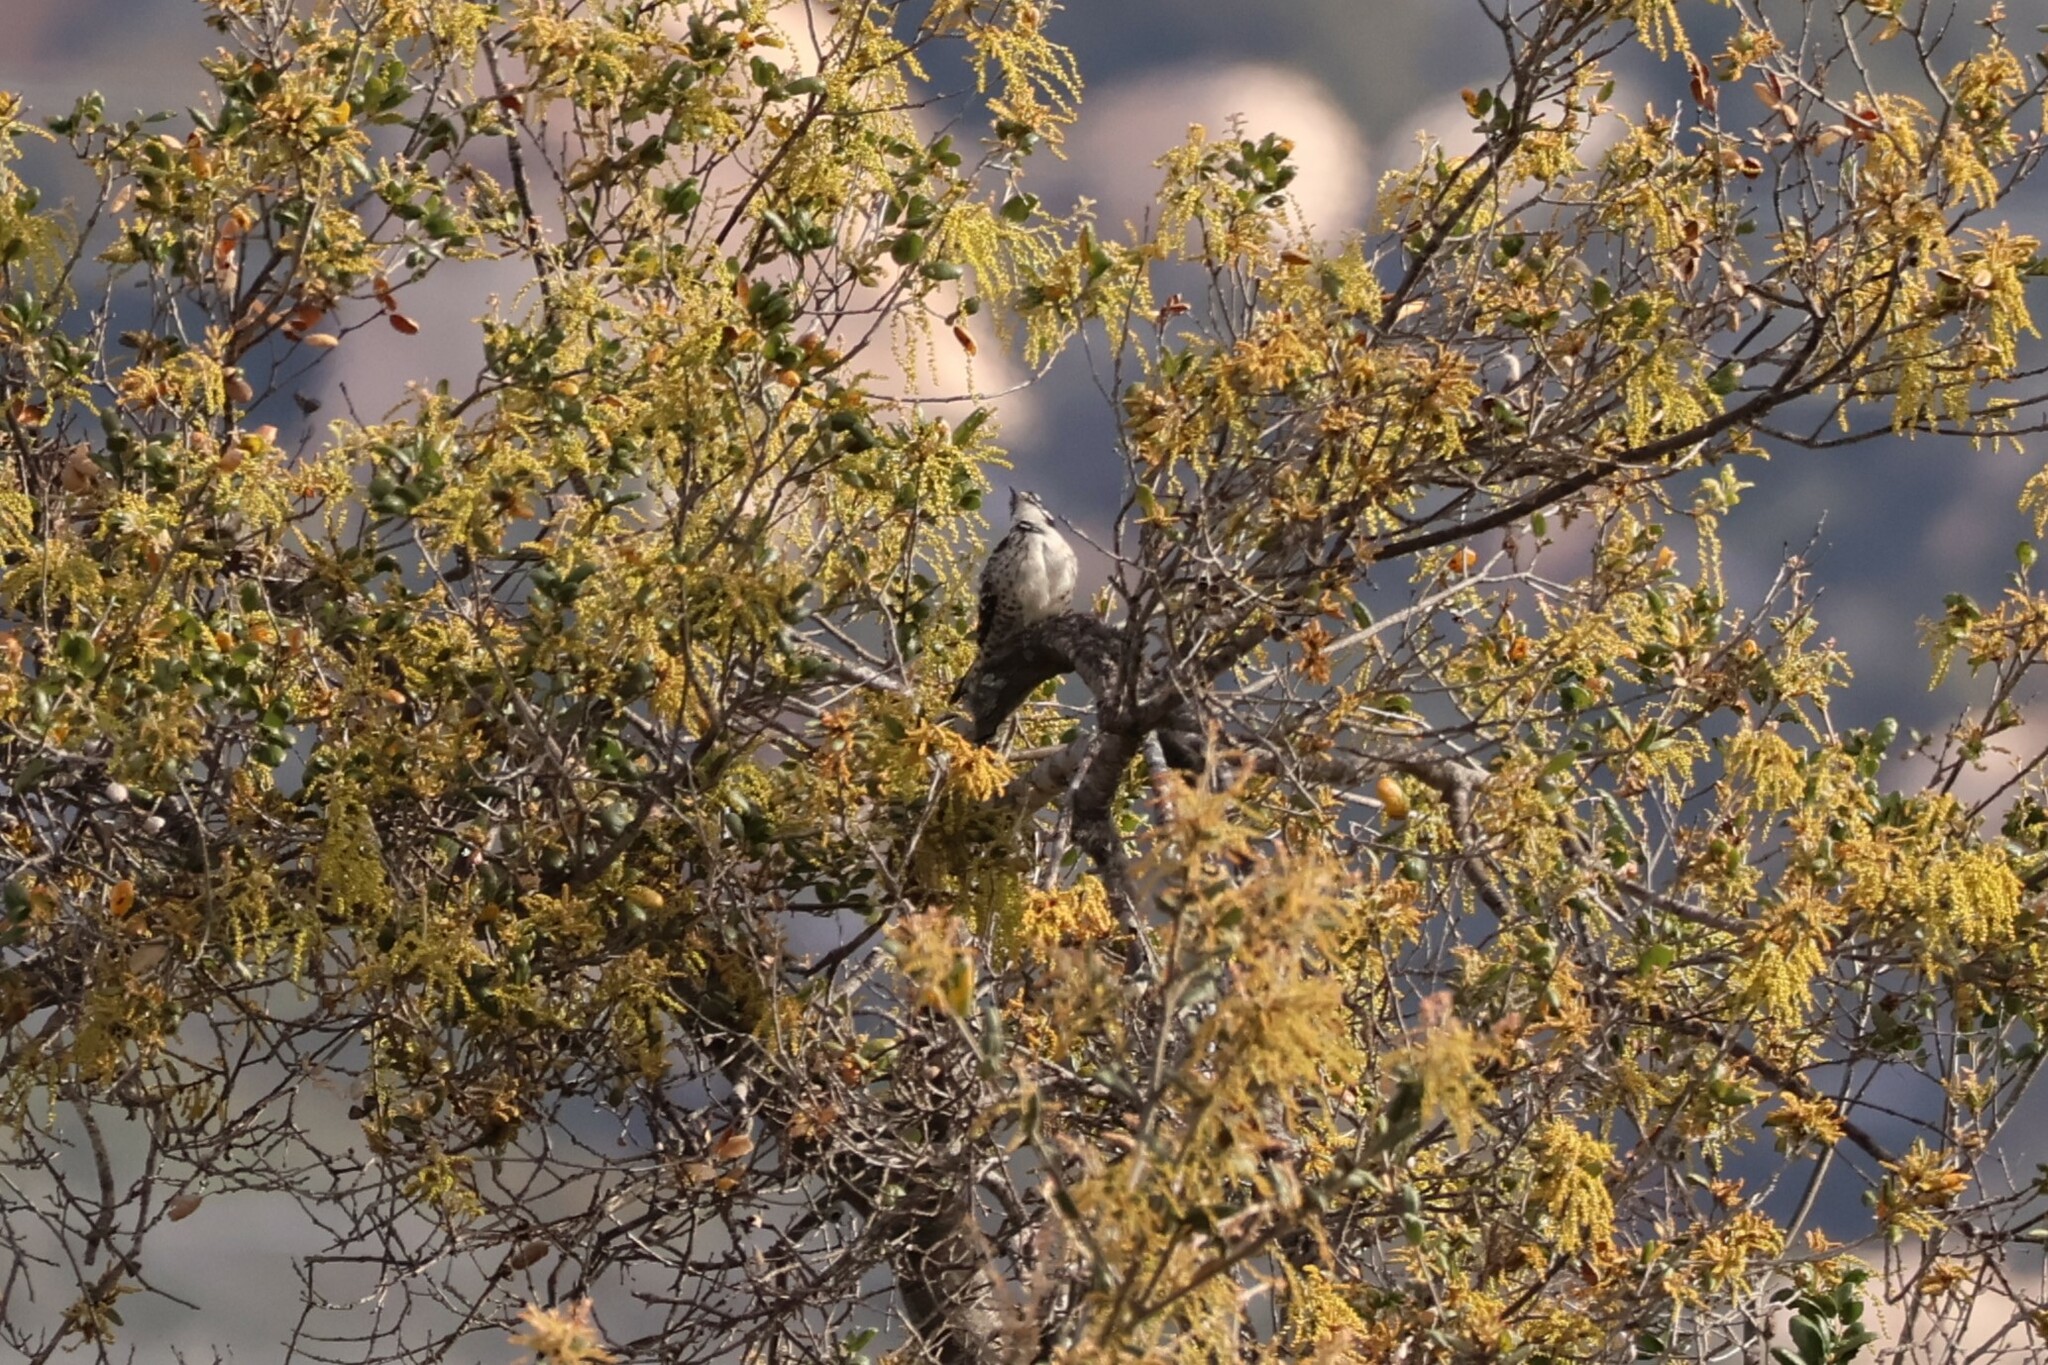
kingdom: Animalia
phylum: Chordata
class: Aves
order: Piciformes
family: Picidae
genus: Dryobates
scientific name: Dryobates nuttallii
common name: Nuttall's woodpecker
